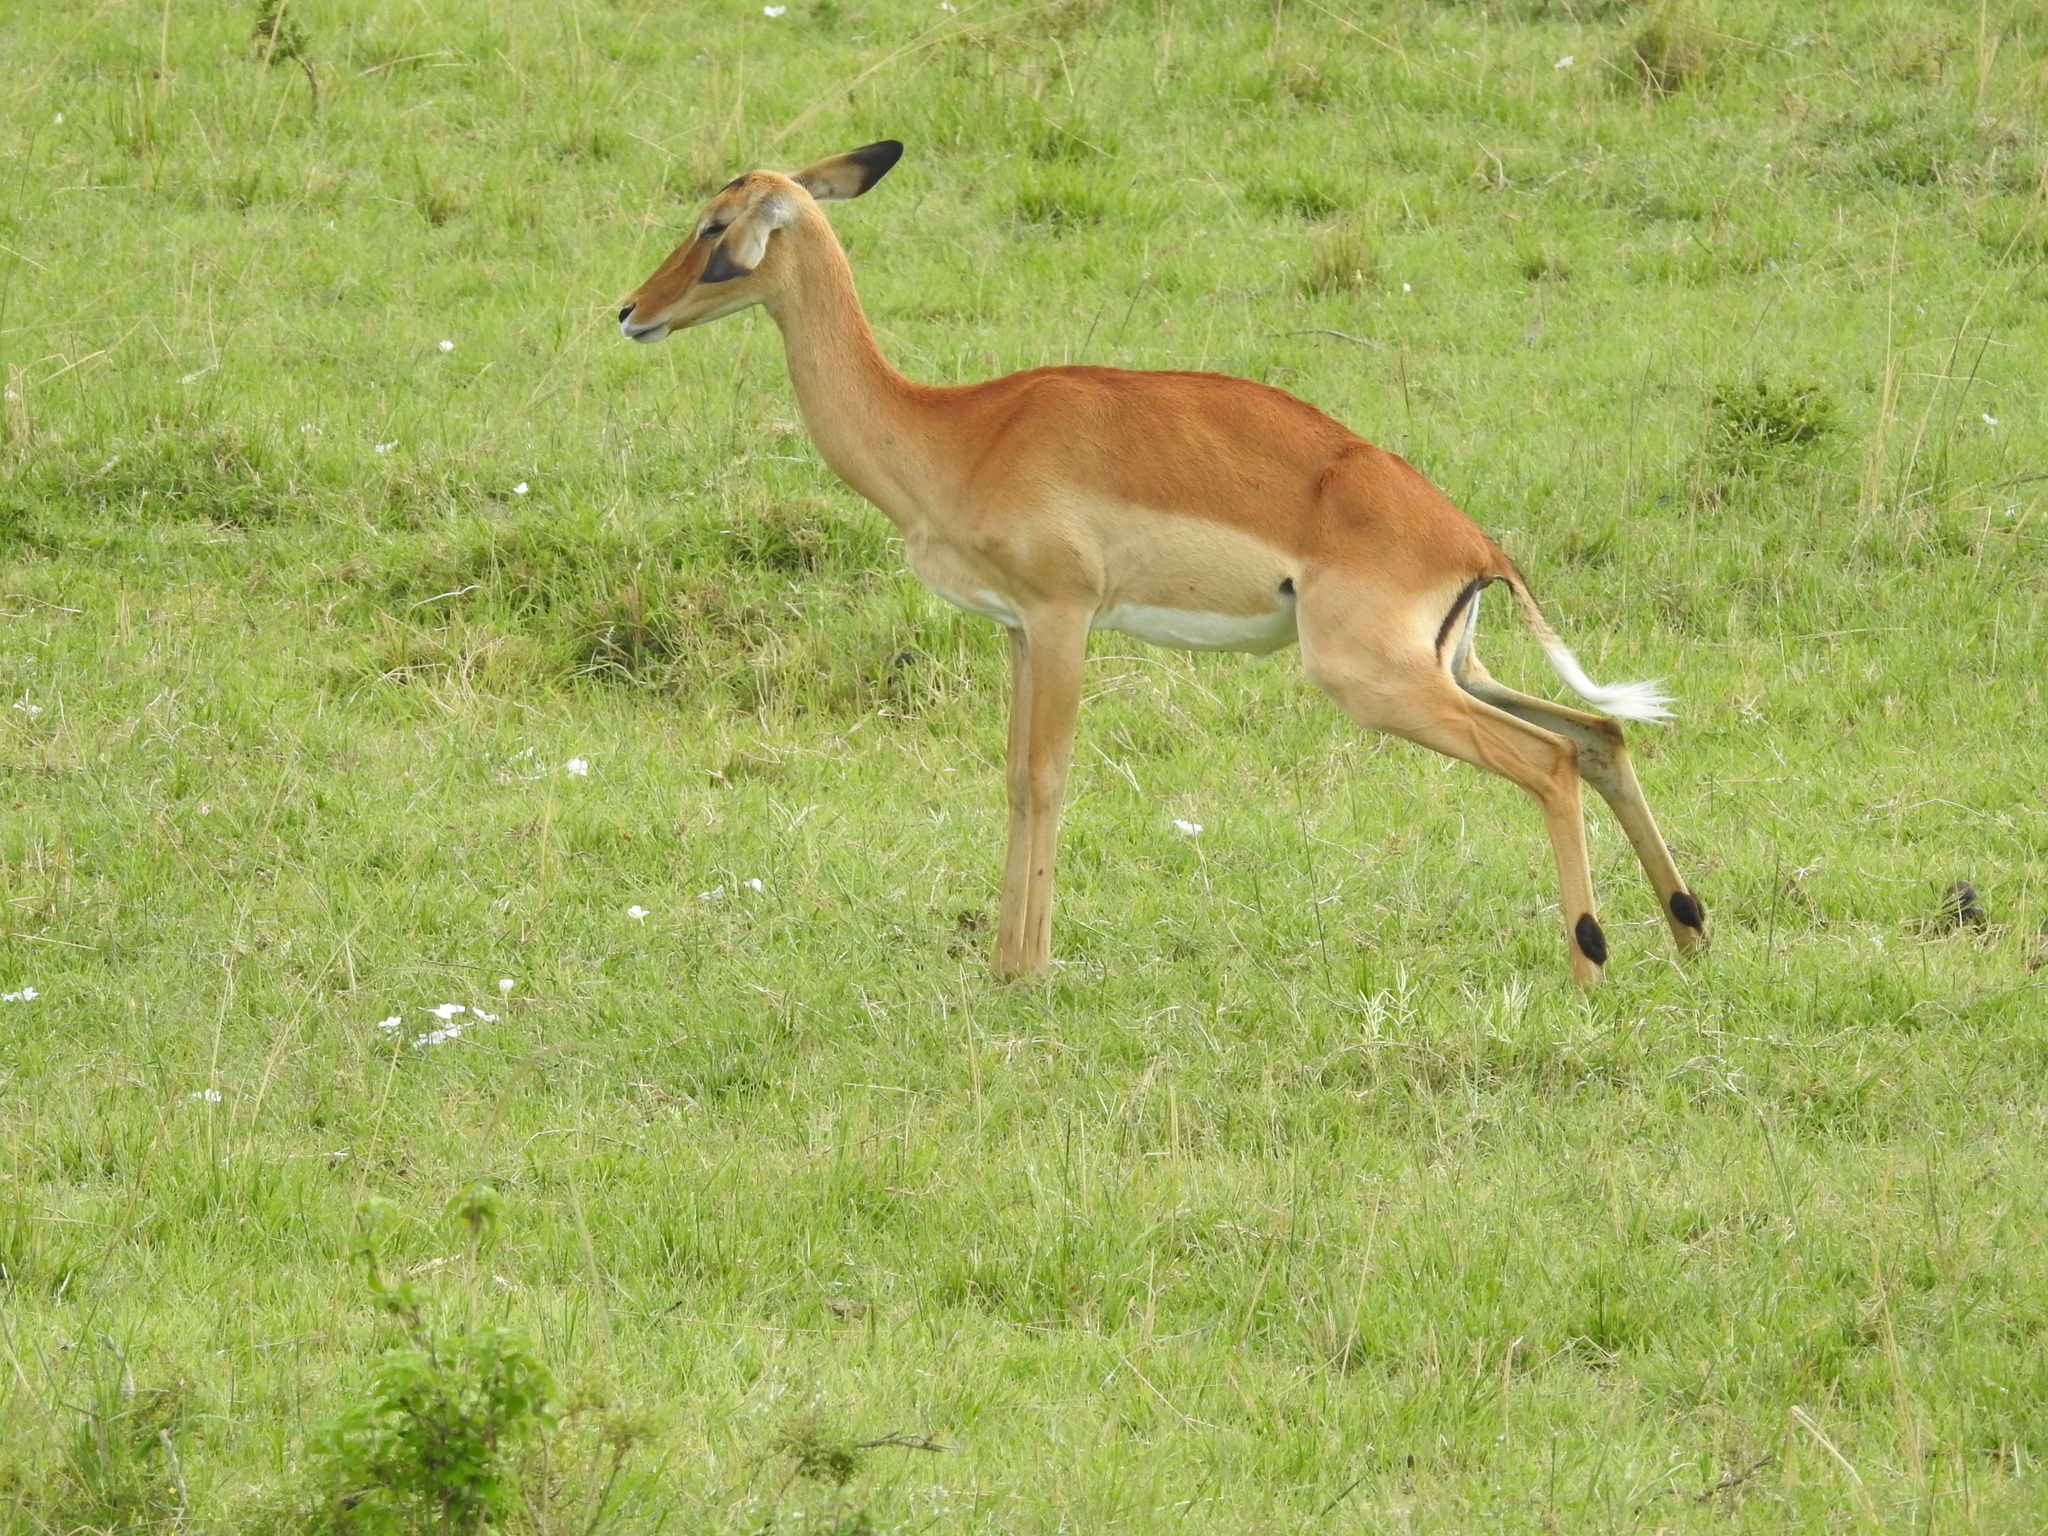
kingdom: Animalia
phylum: Chordata
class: Mammalia
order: Artiodactyla
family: Bovidae
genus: Aepyceros
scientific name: Aepyceros melampus
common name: Impala
